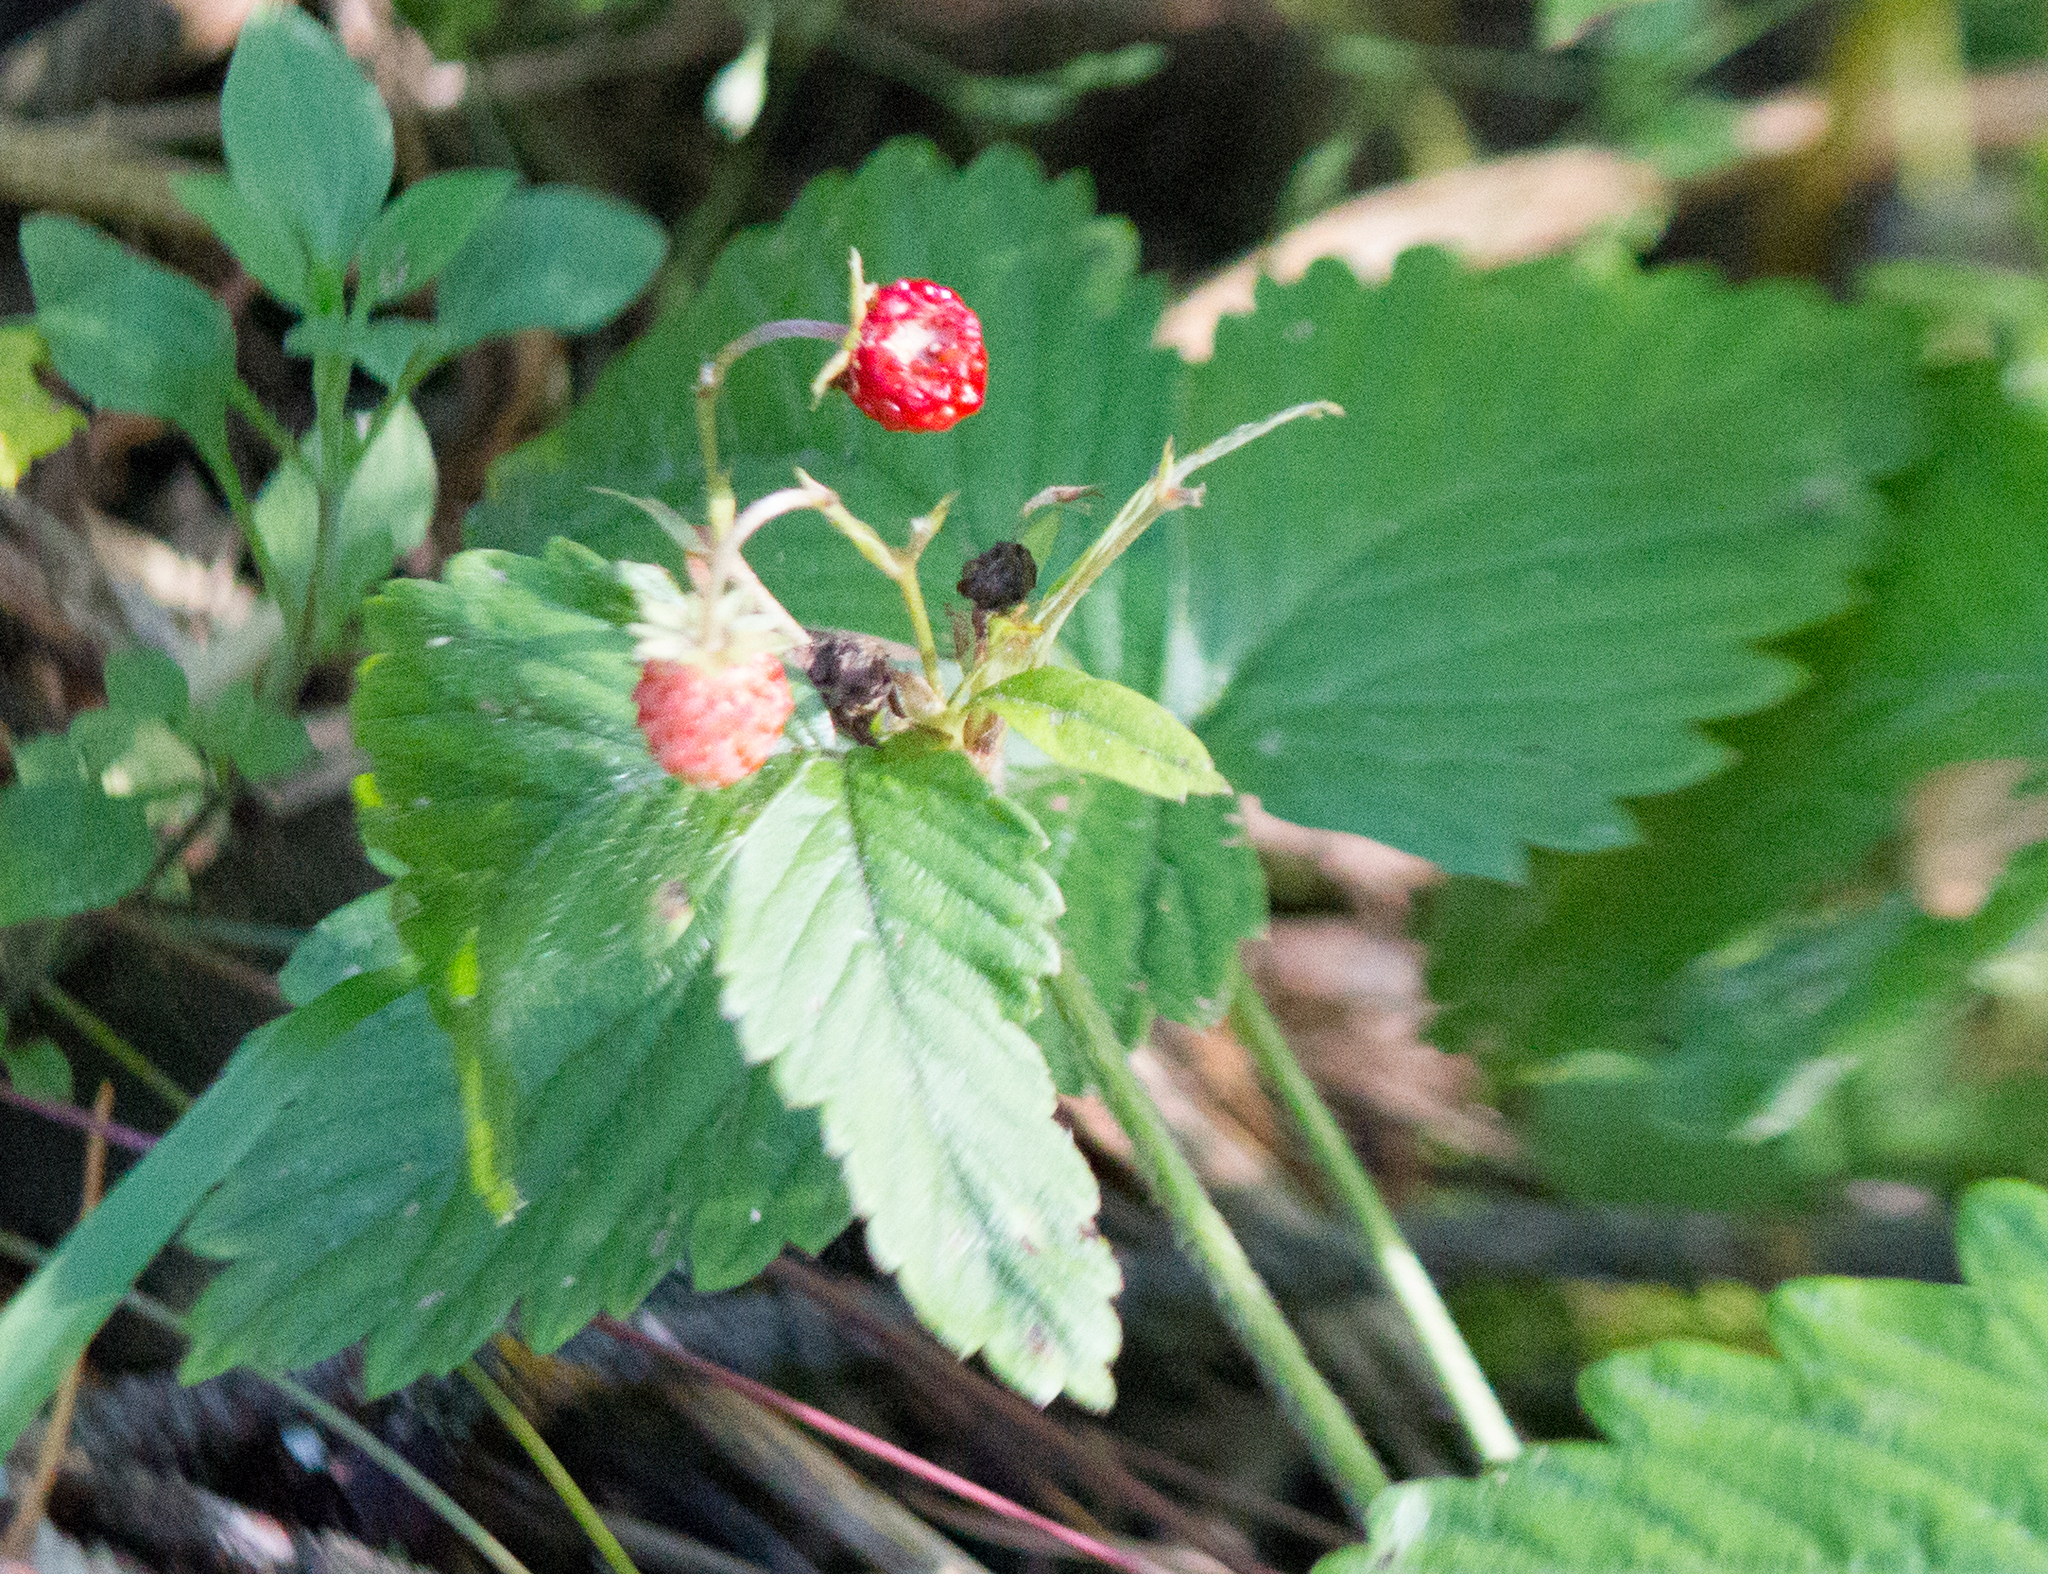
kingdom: Plantae
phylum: Tracheophyta
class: Magnoliopsida
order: Rosales
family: Rosaceae
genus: Fragaria
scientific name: Fragaria vesca
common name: Wild strawberry
